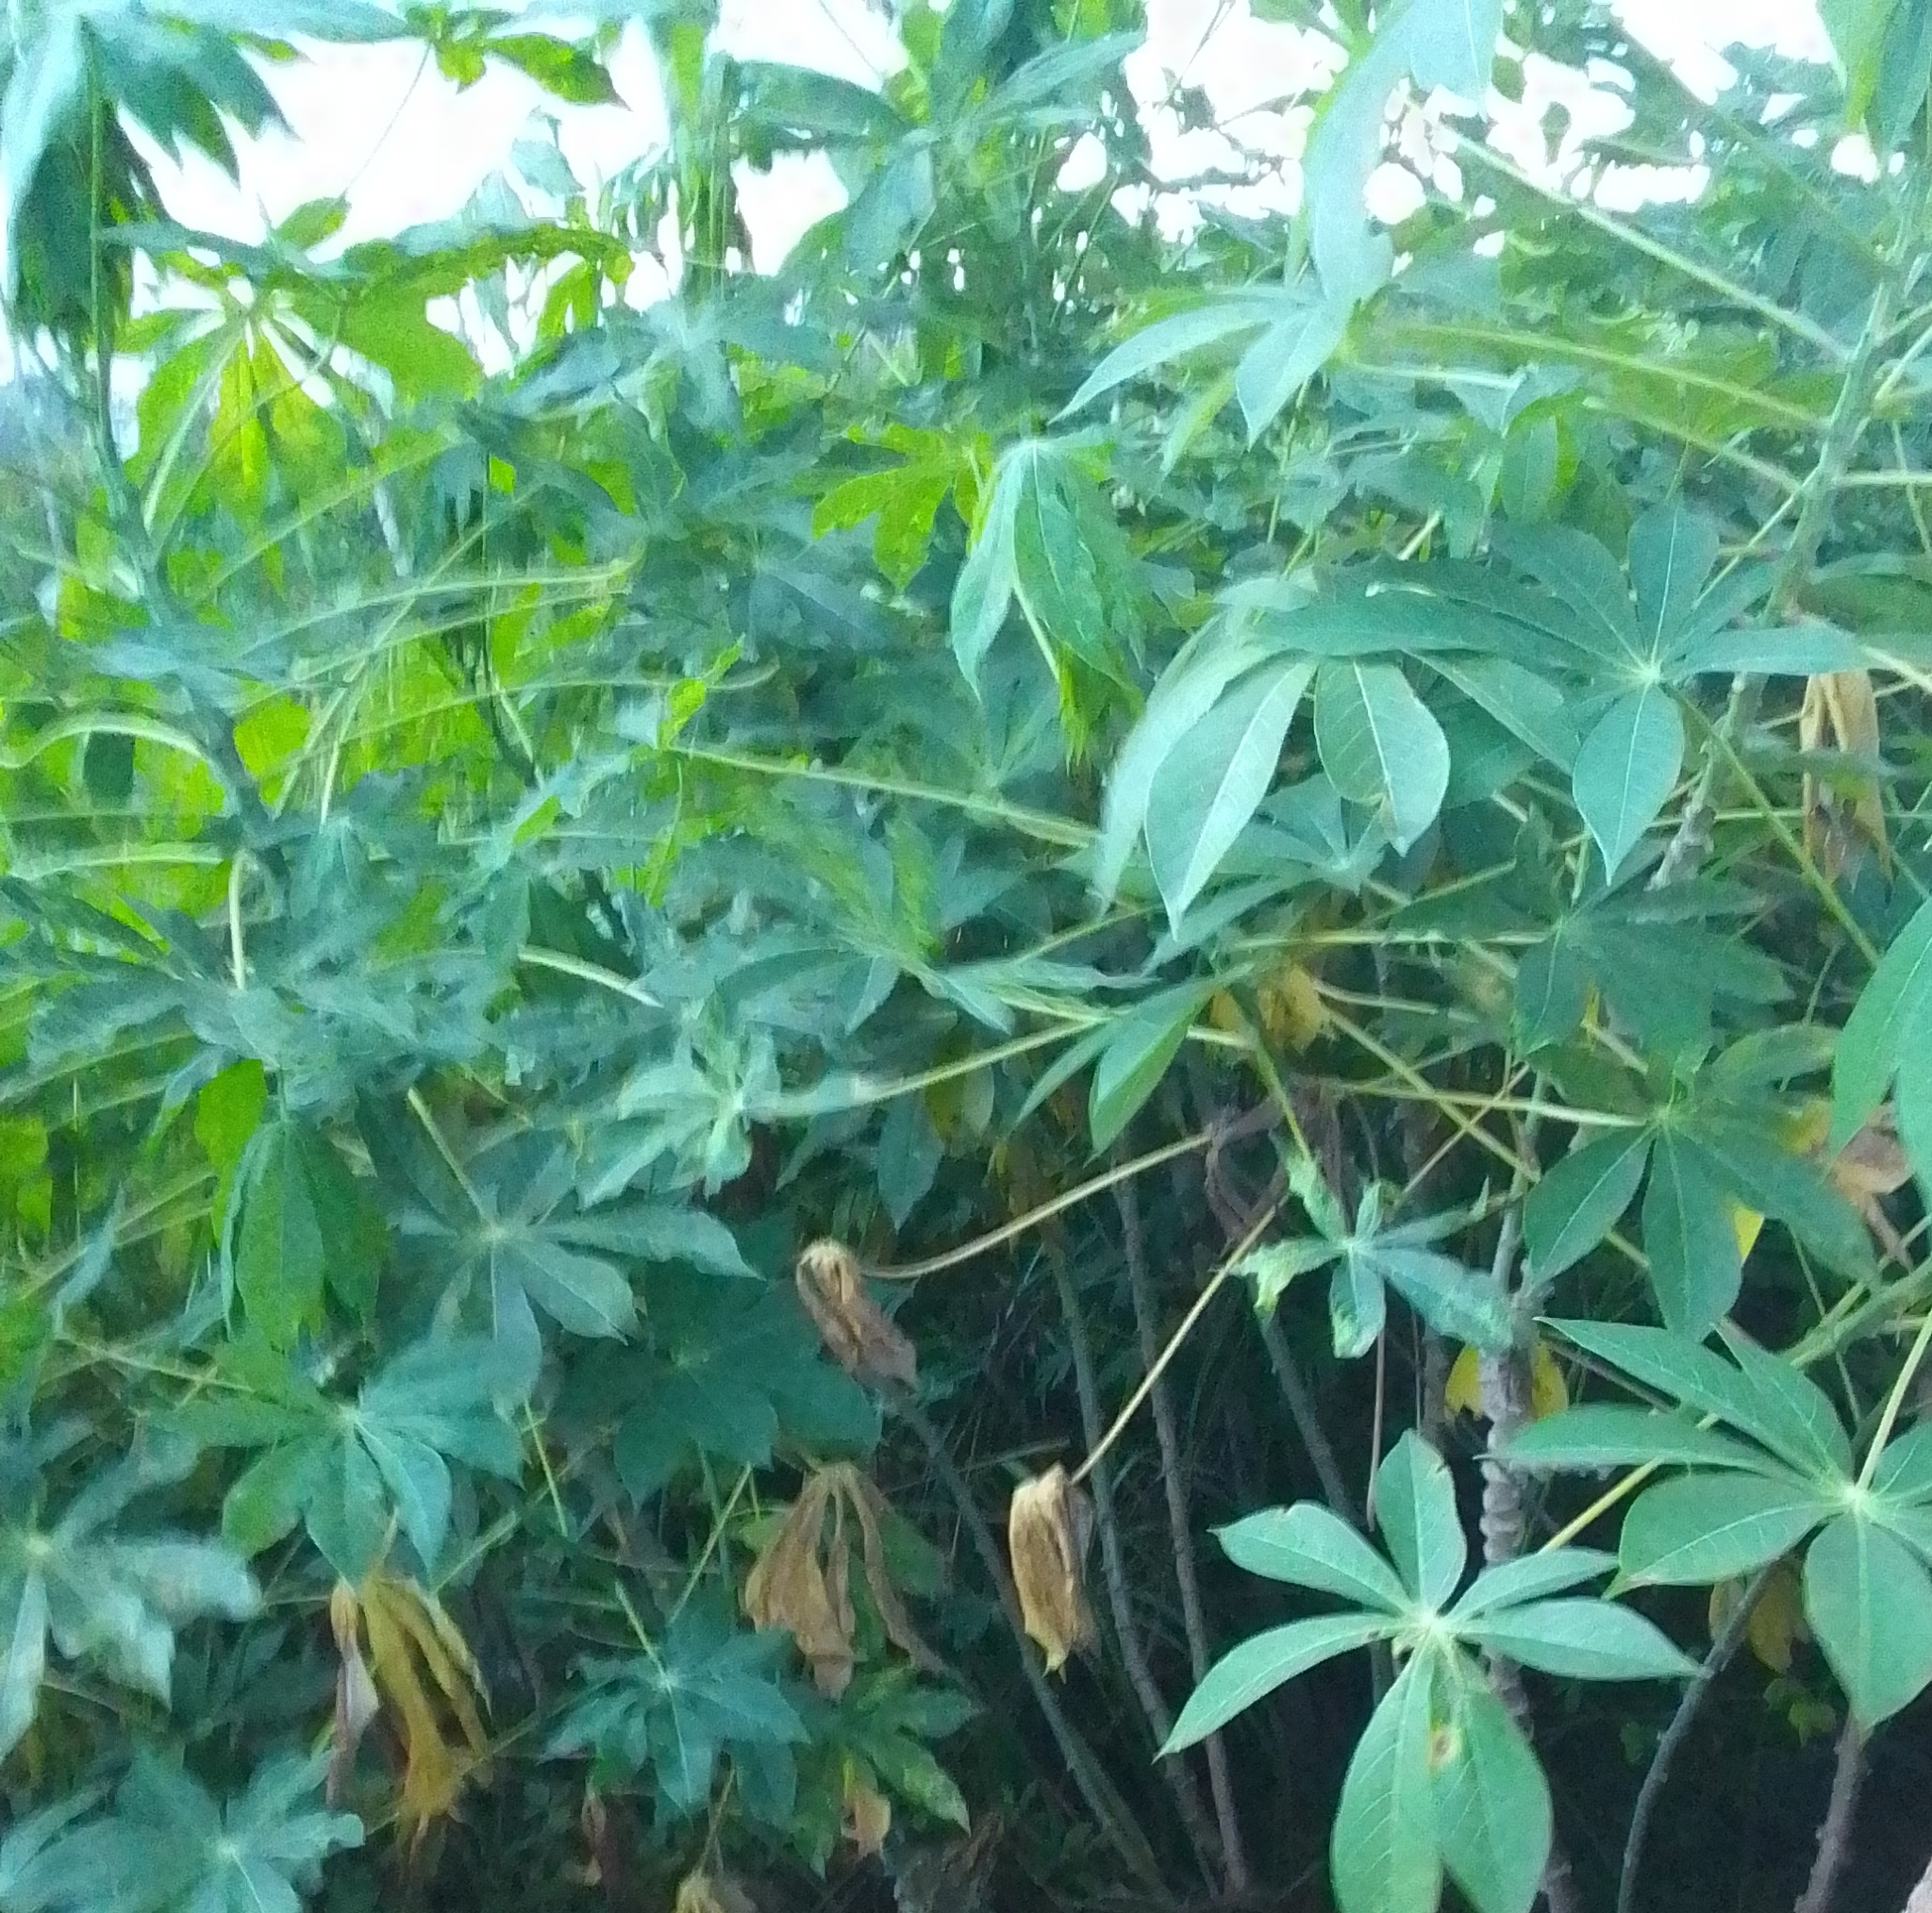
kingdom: Plantae
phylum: Tracheophyta
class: Magnoliopsida
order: Malpighiales
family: Euphorbiaceae
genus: Manihot
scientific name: Manihot esculenta
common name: Cassava
